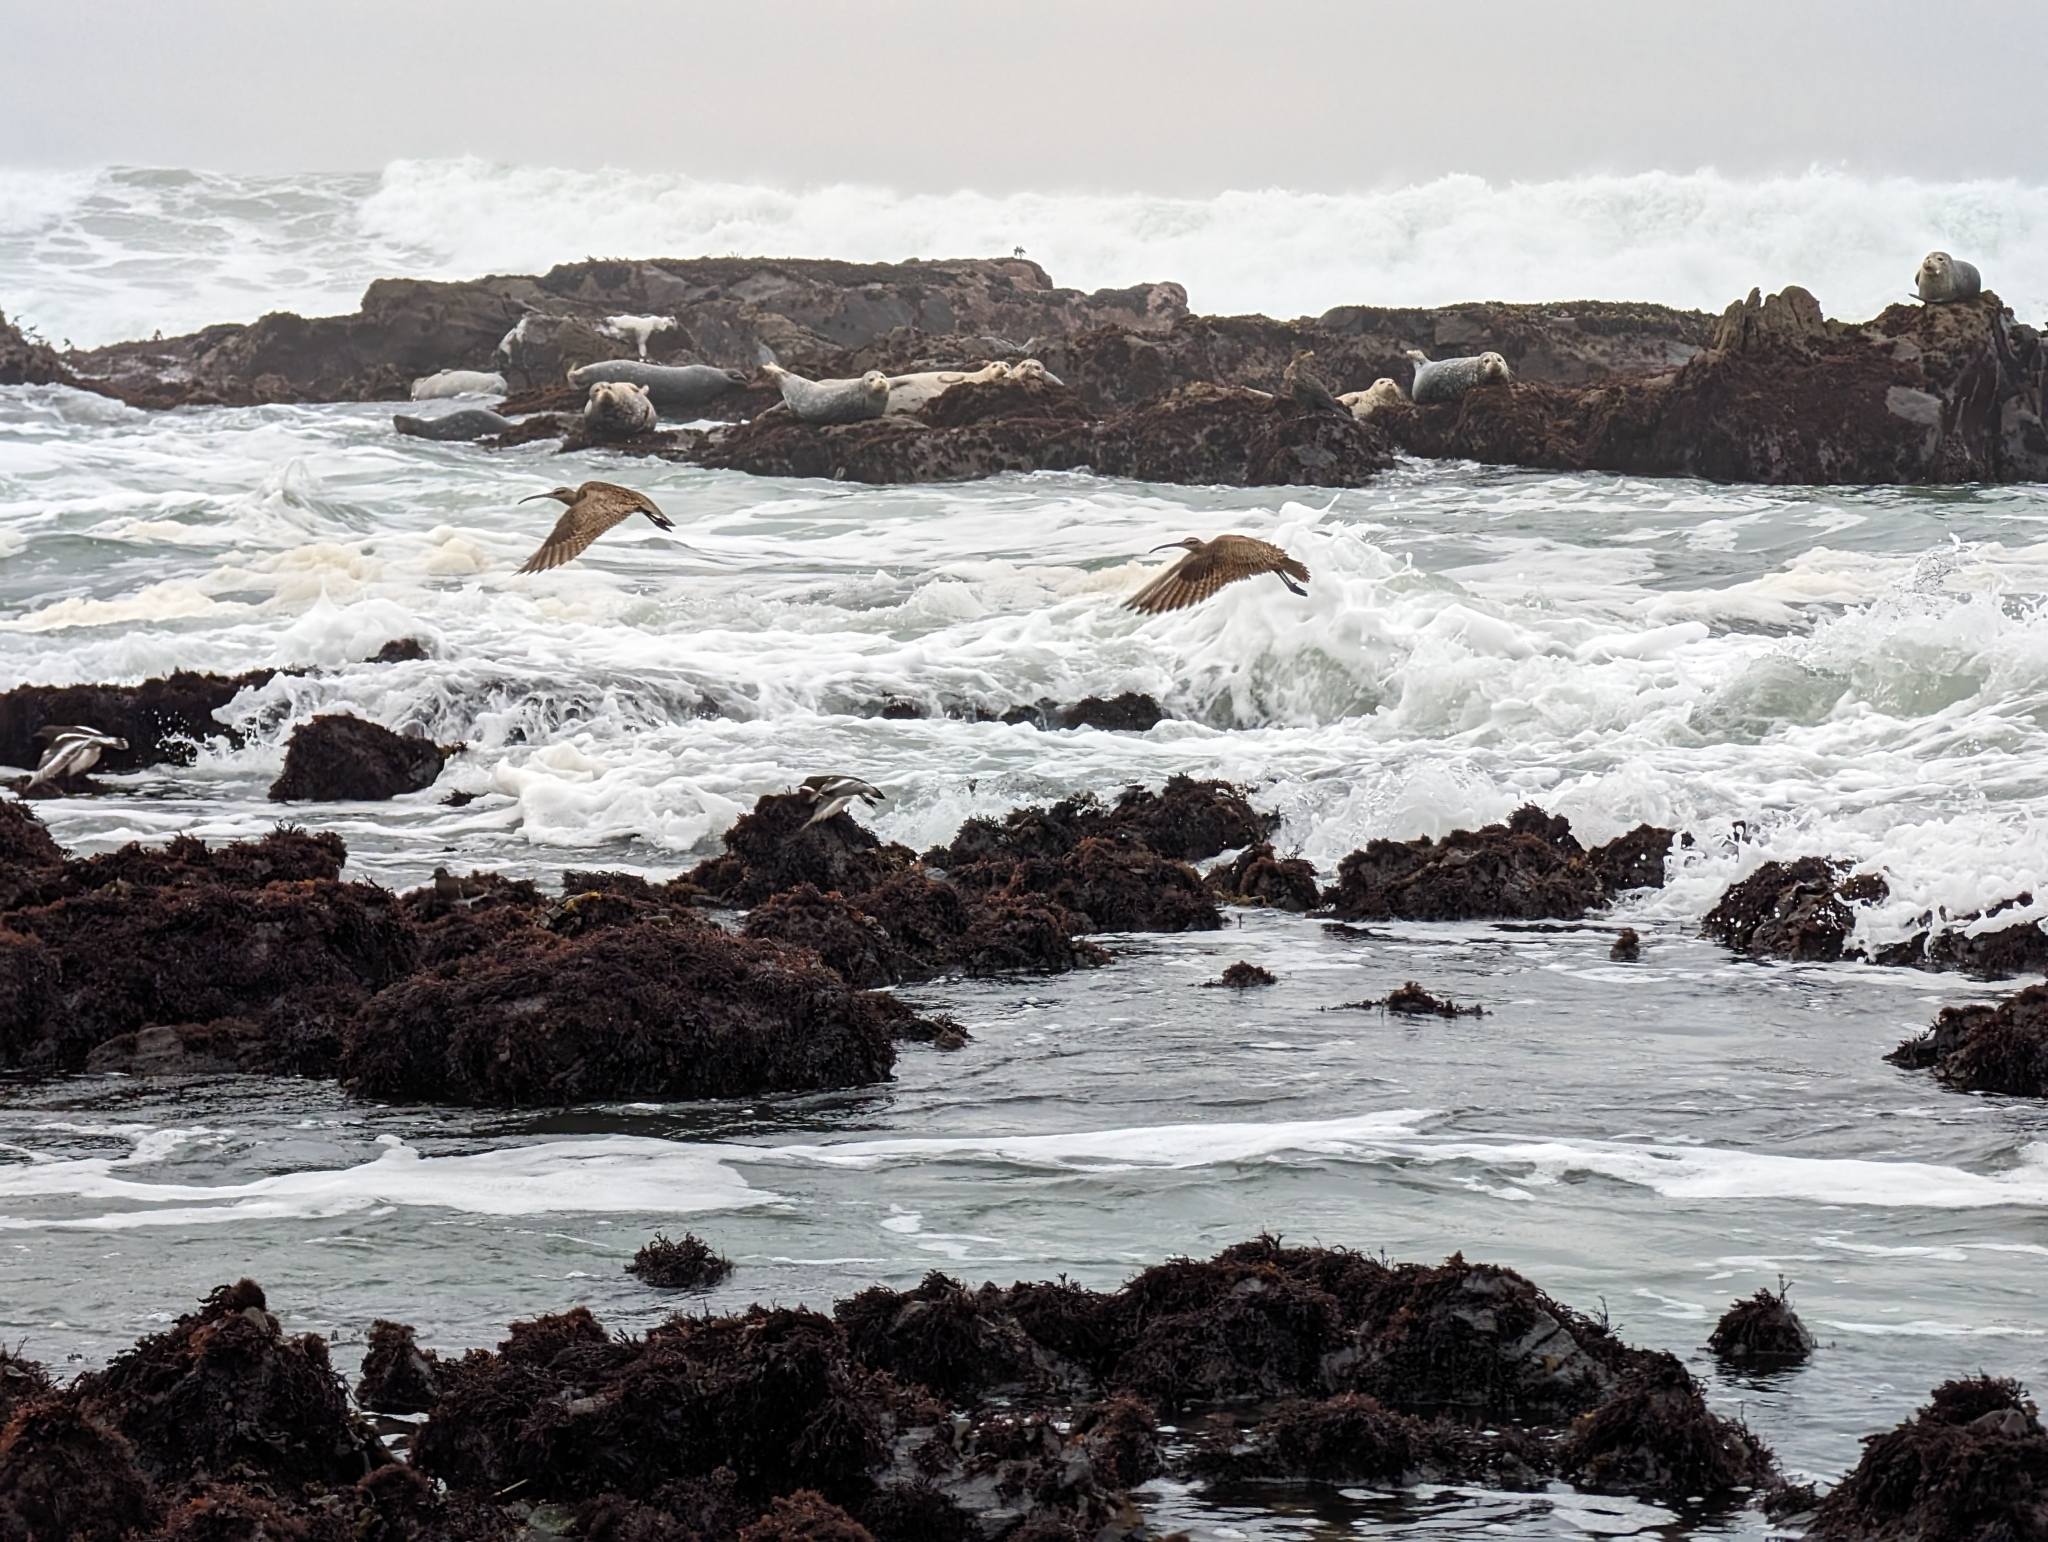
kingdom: Animalia
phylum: Chordata
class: Aves
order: Charadriiformes
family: Scolopacidae
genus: Numenius
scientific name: Numenius phaeopus
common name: Whimbrel
